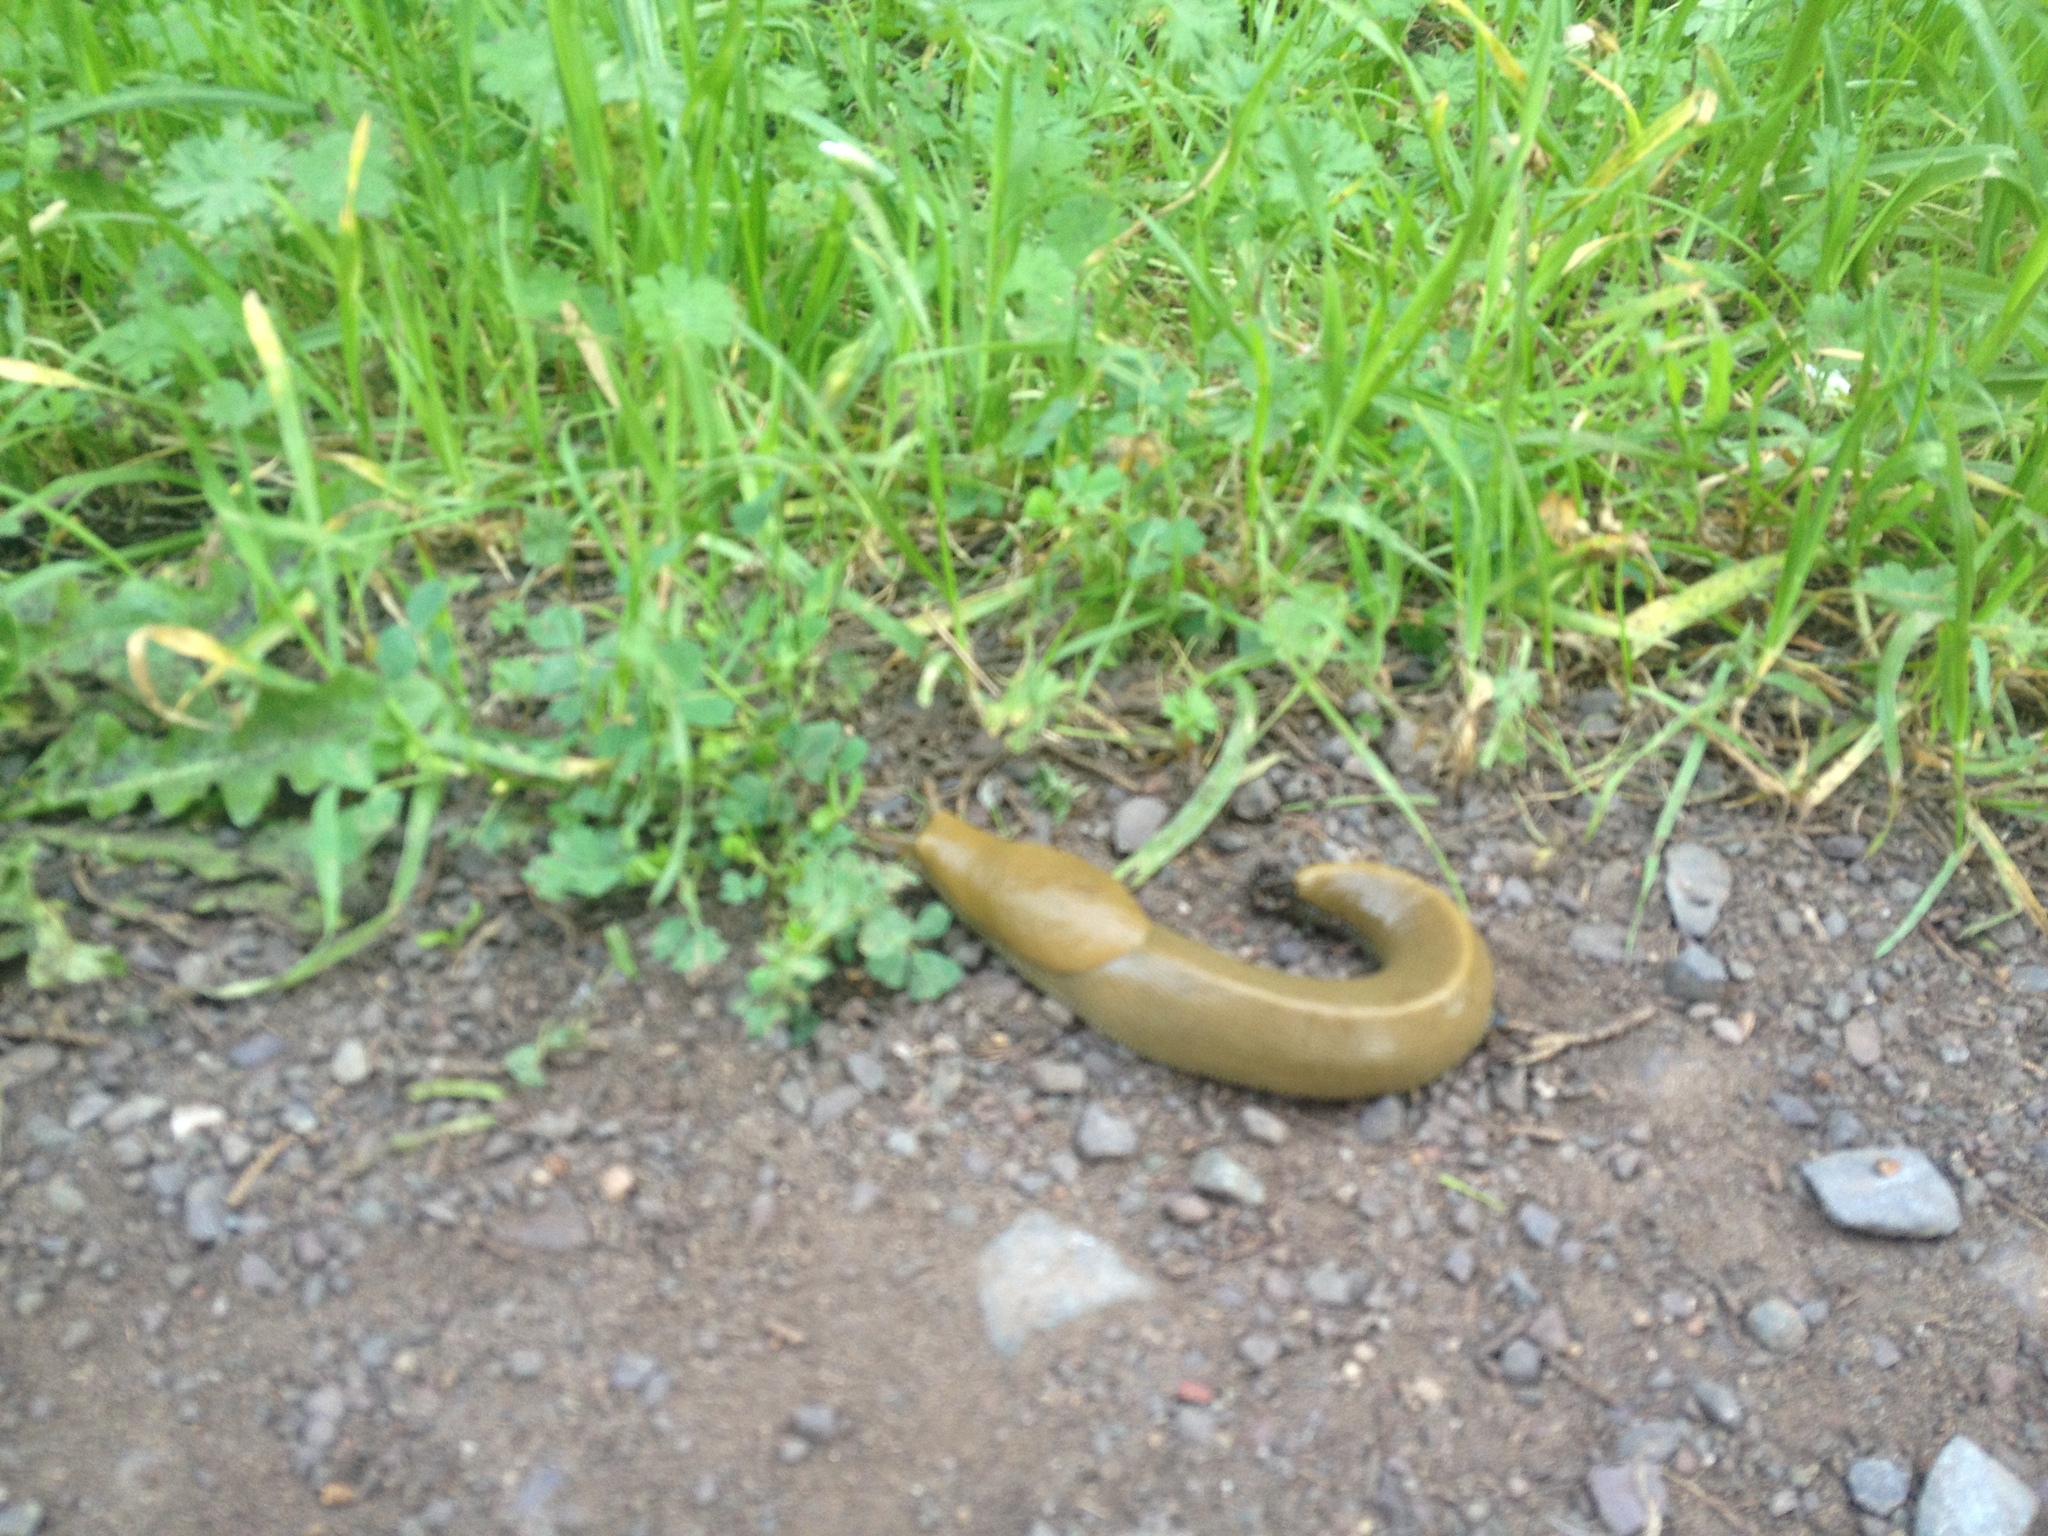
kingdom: Animalia
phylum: Mollusca
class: Gastropoda
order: Stylommatophora
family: Ariolimacidae
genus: Ariolimax
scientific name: Ariolimax
